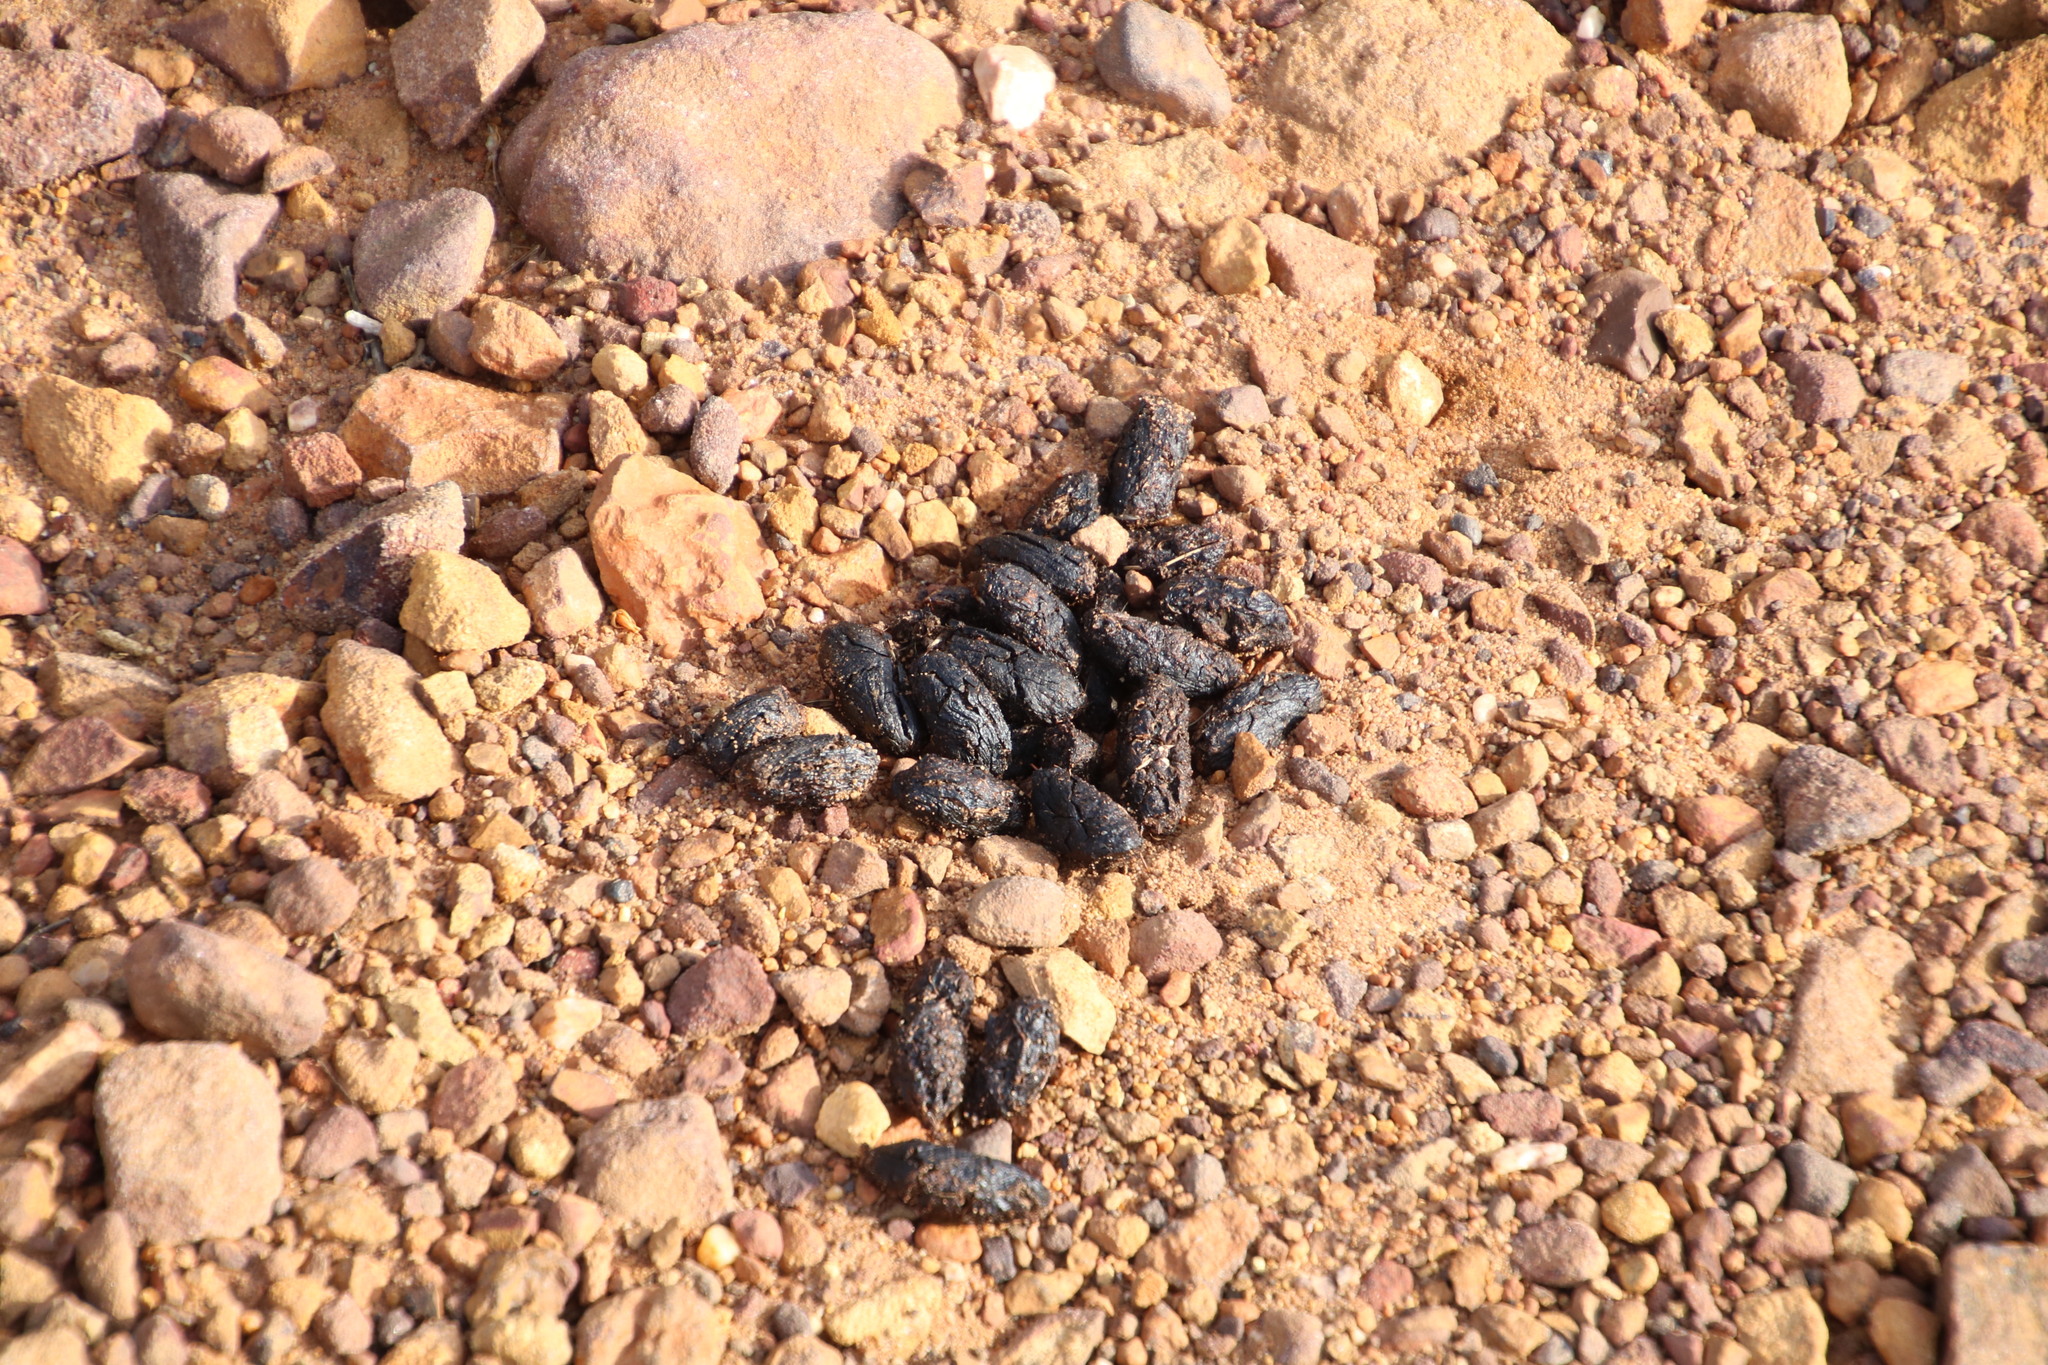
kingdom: Animalia
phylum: Chordata
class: Mammalia
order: Rodentia
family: Hystricidae
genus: Hystrix
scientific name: Hystrix africaeaustralis
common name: Cape porcupine
